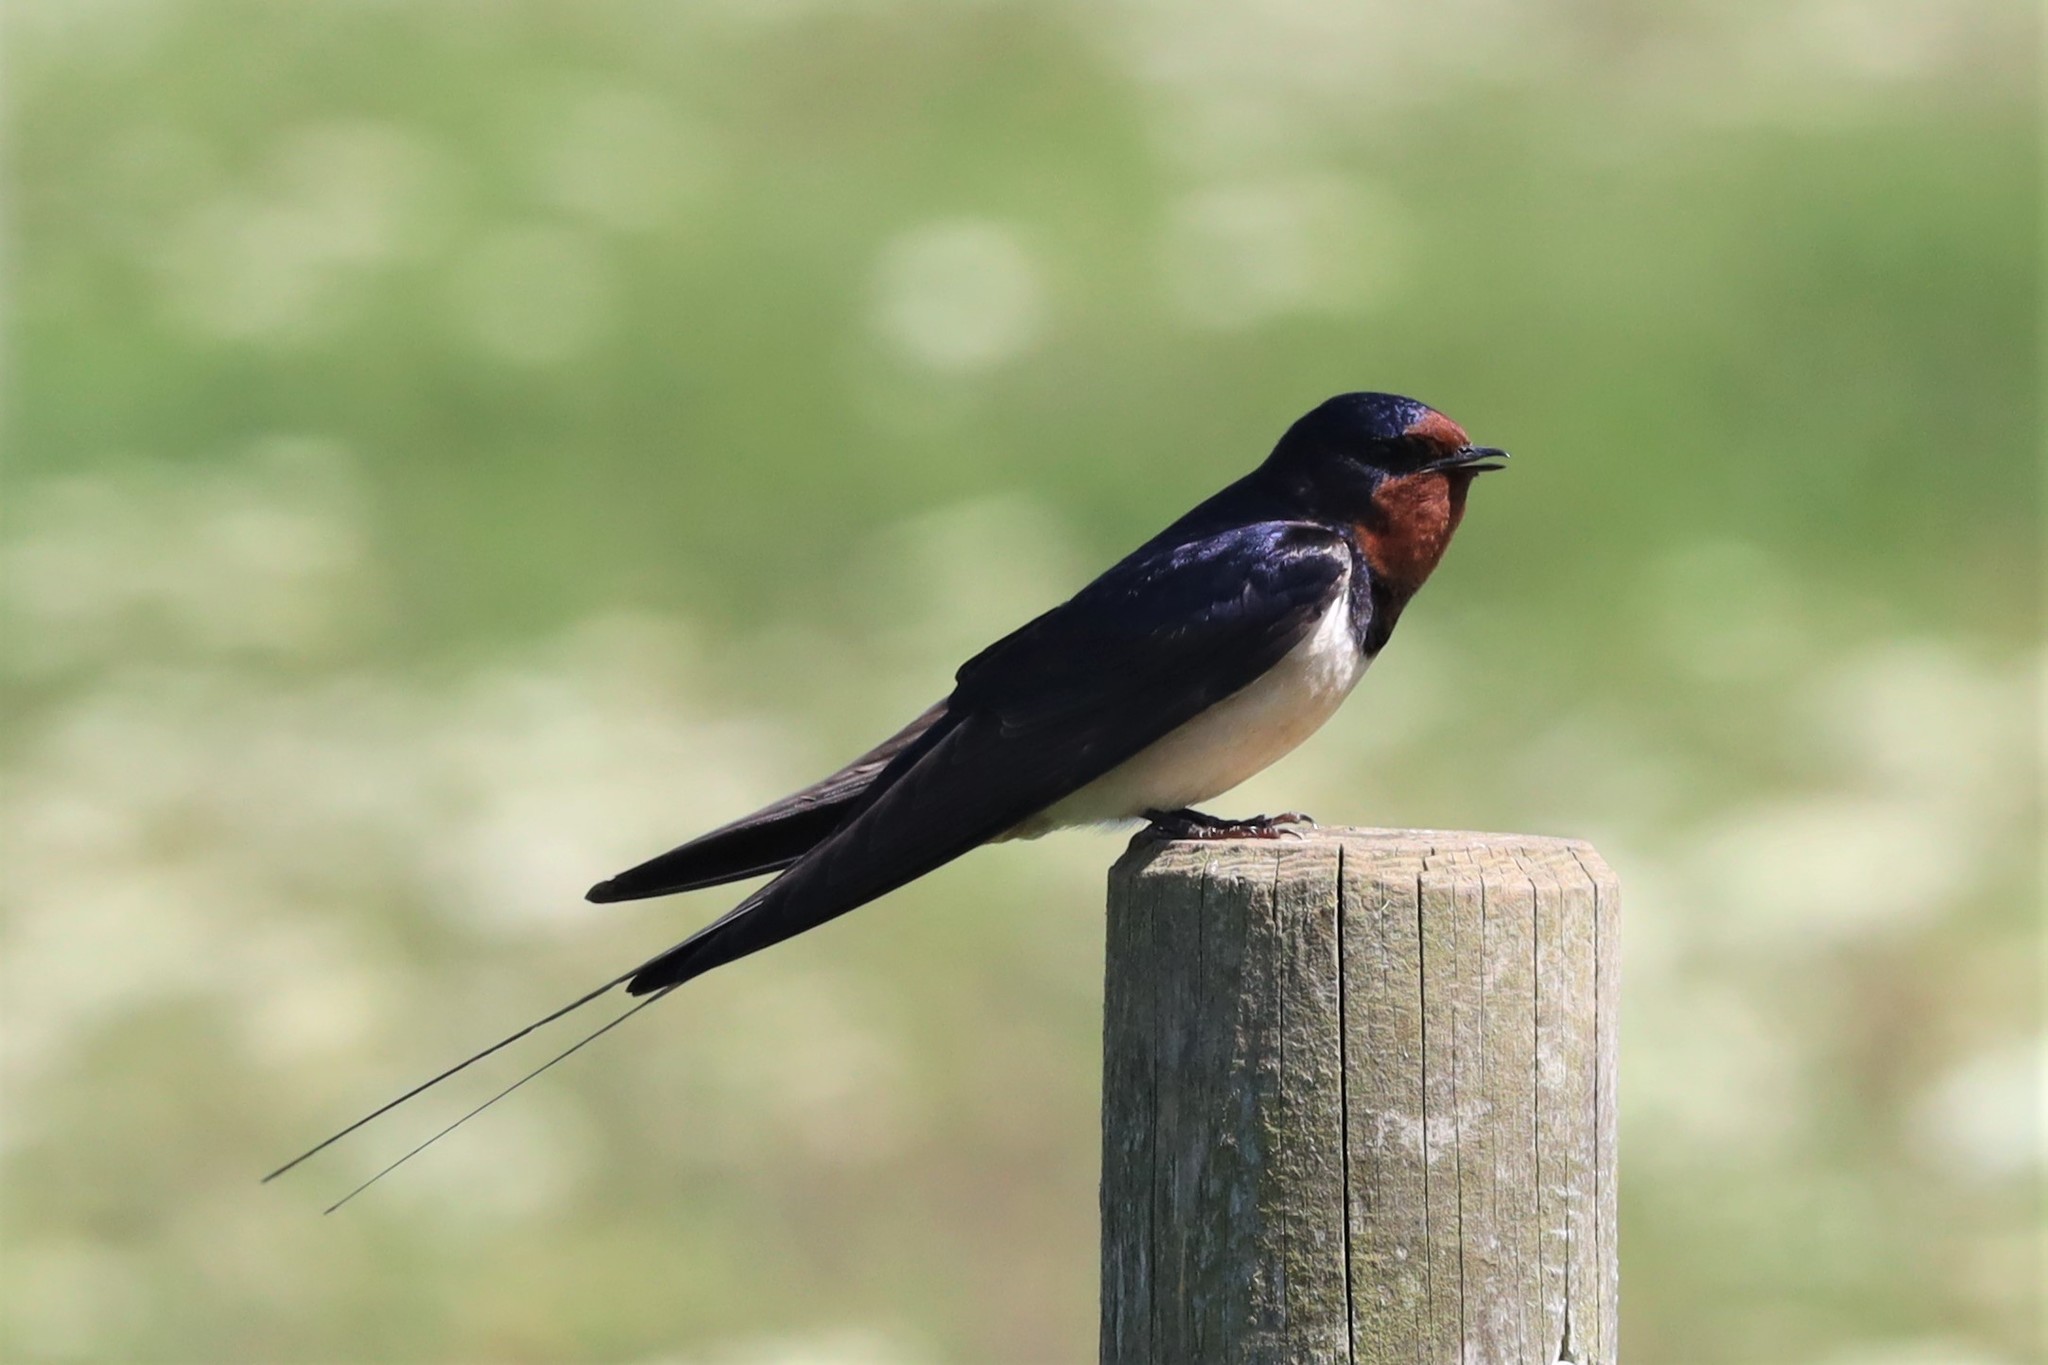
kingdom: Animalia
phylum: Chordata
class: Aves
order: Passeriformes
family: Hirundinidae
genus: Hirundo
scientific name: Hirundo rustica
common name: Barn swallow
